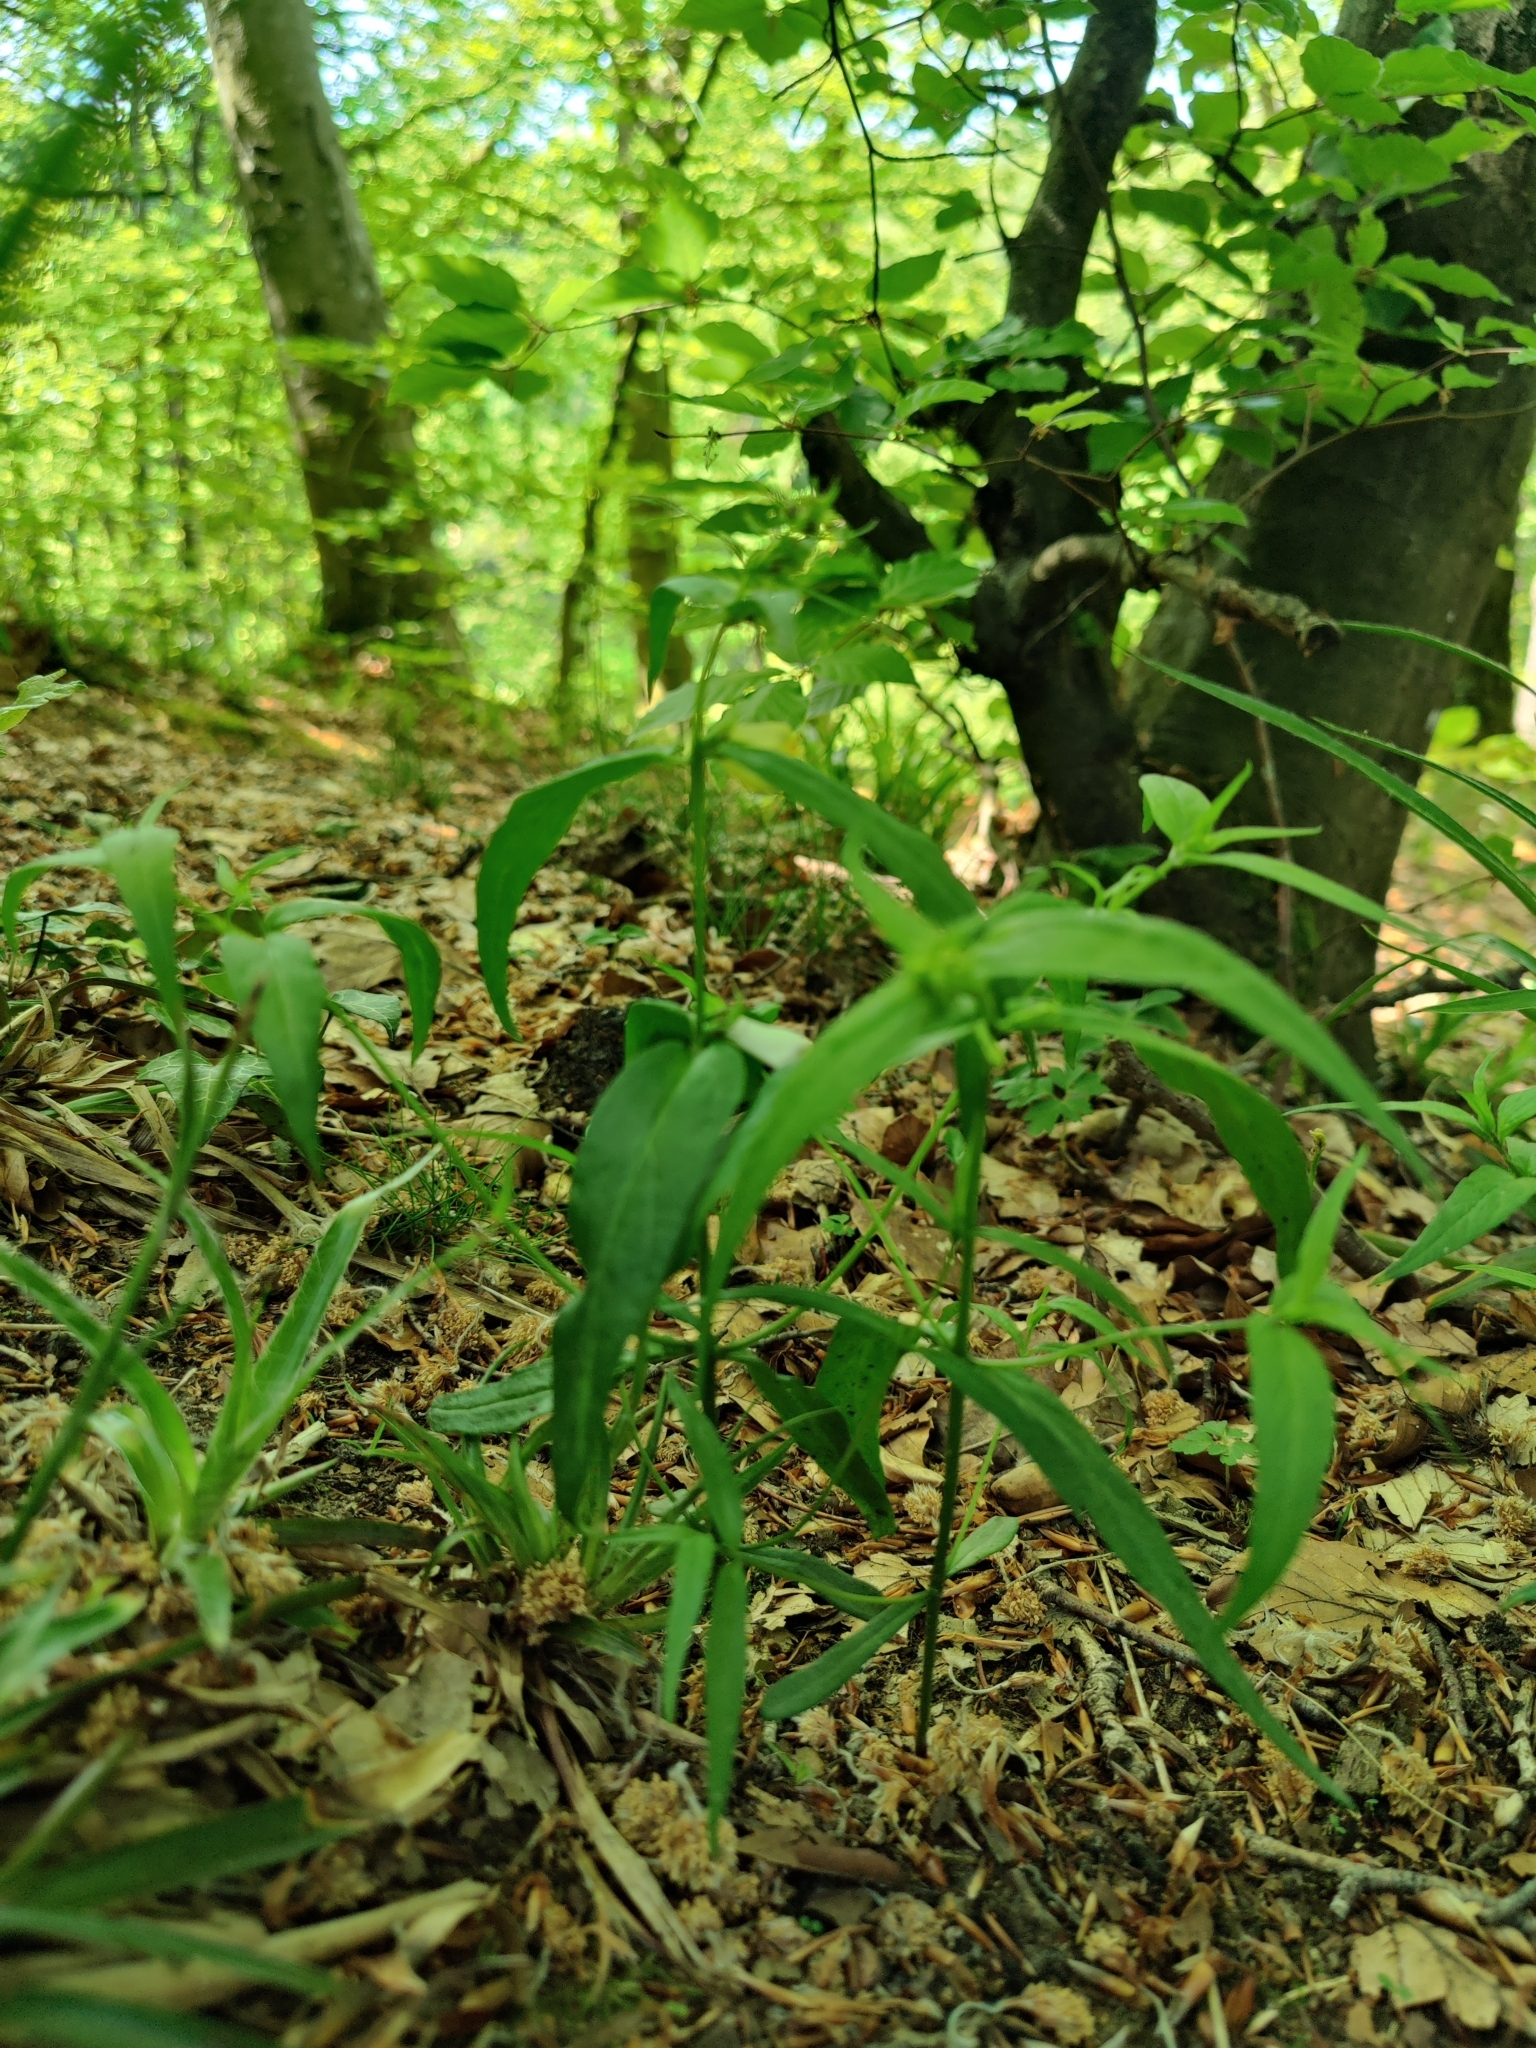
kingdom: Plantae
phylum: Tracheophyta
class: Magnoliopsida
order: Lamiales
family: Orobanchaceae
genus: Melampyrum
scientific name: Melampyrum pratense
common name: Common cow-wheat
